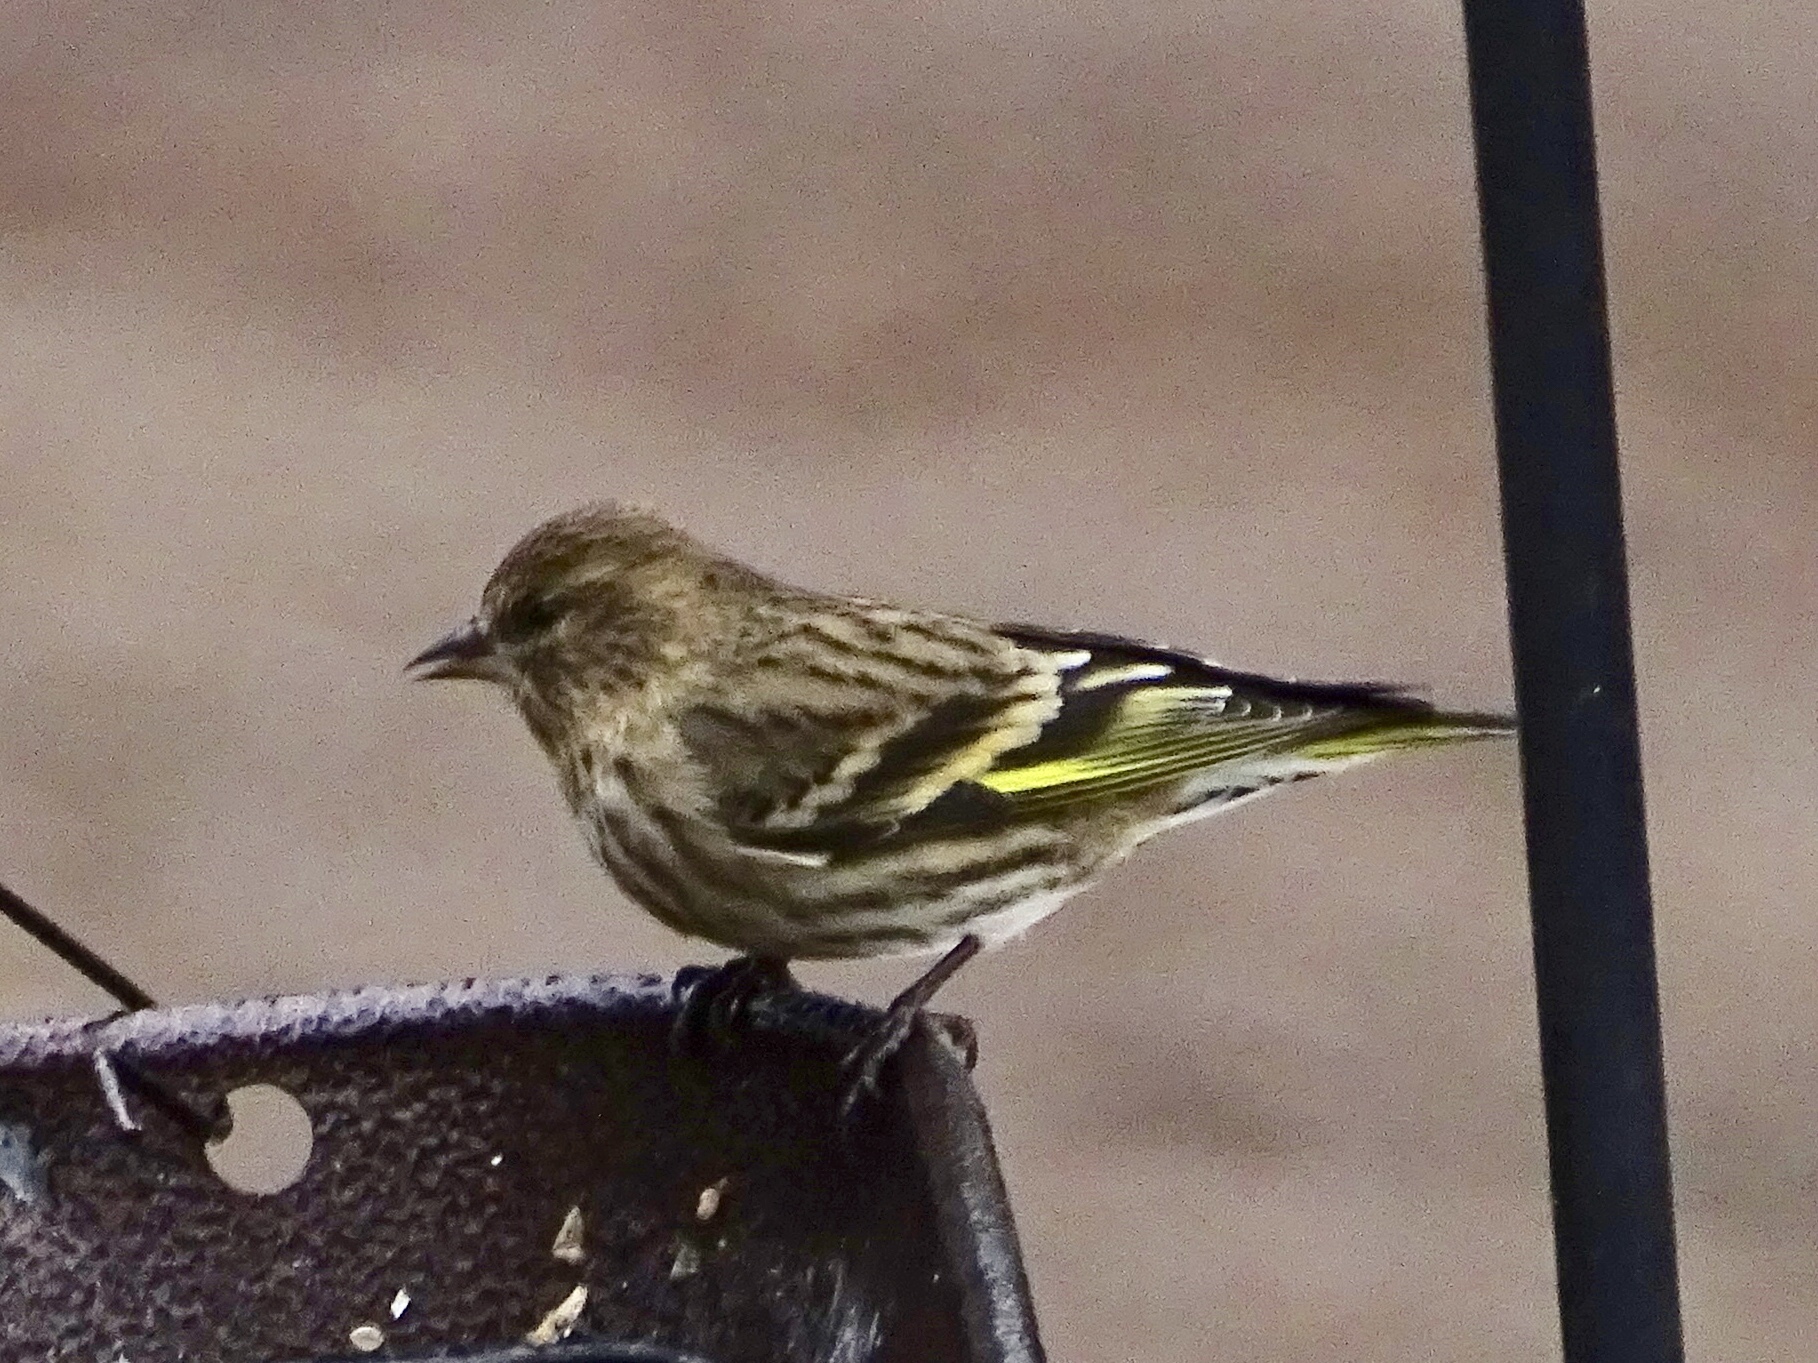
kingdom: Animalia
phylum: Chordata
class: Aves
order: Passeriformes
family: Fringillidae
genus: Spinus
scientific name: Spinus pinus
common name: Pine siskin
